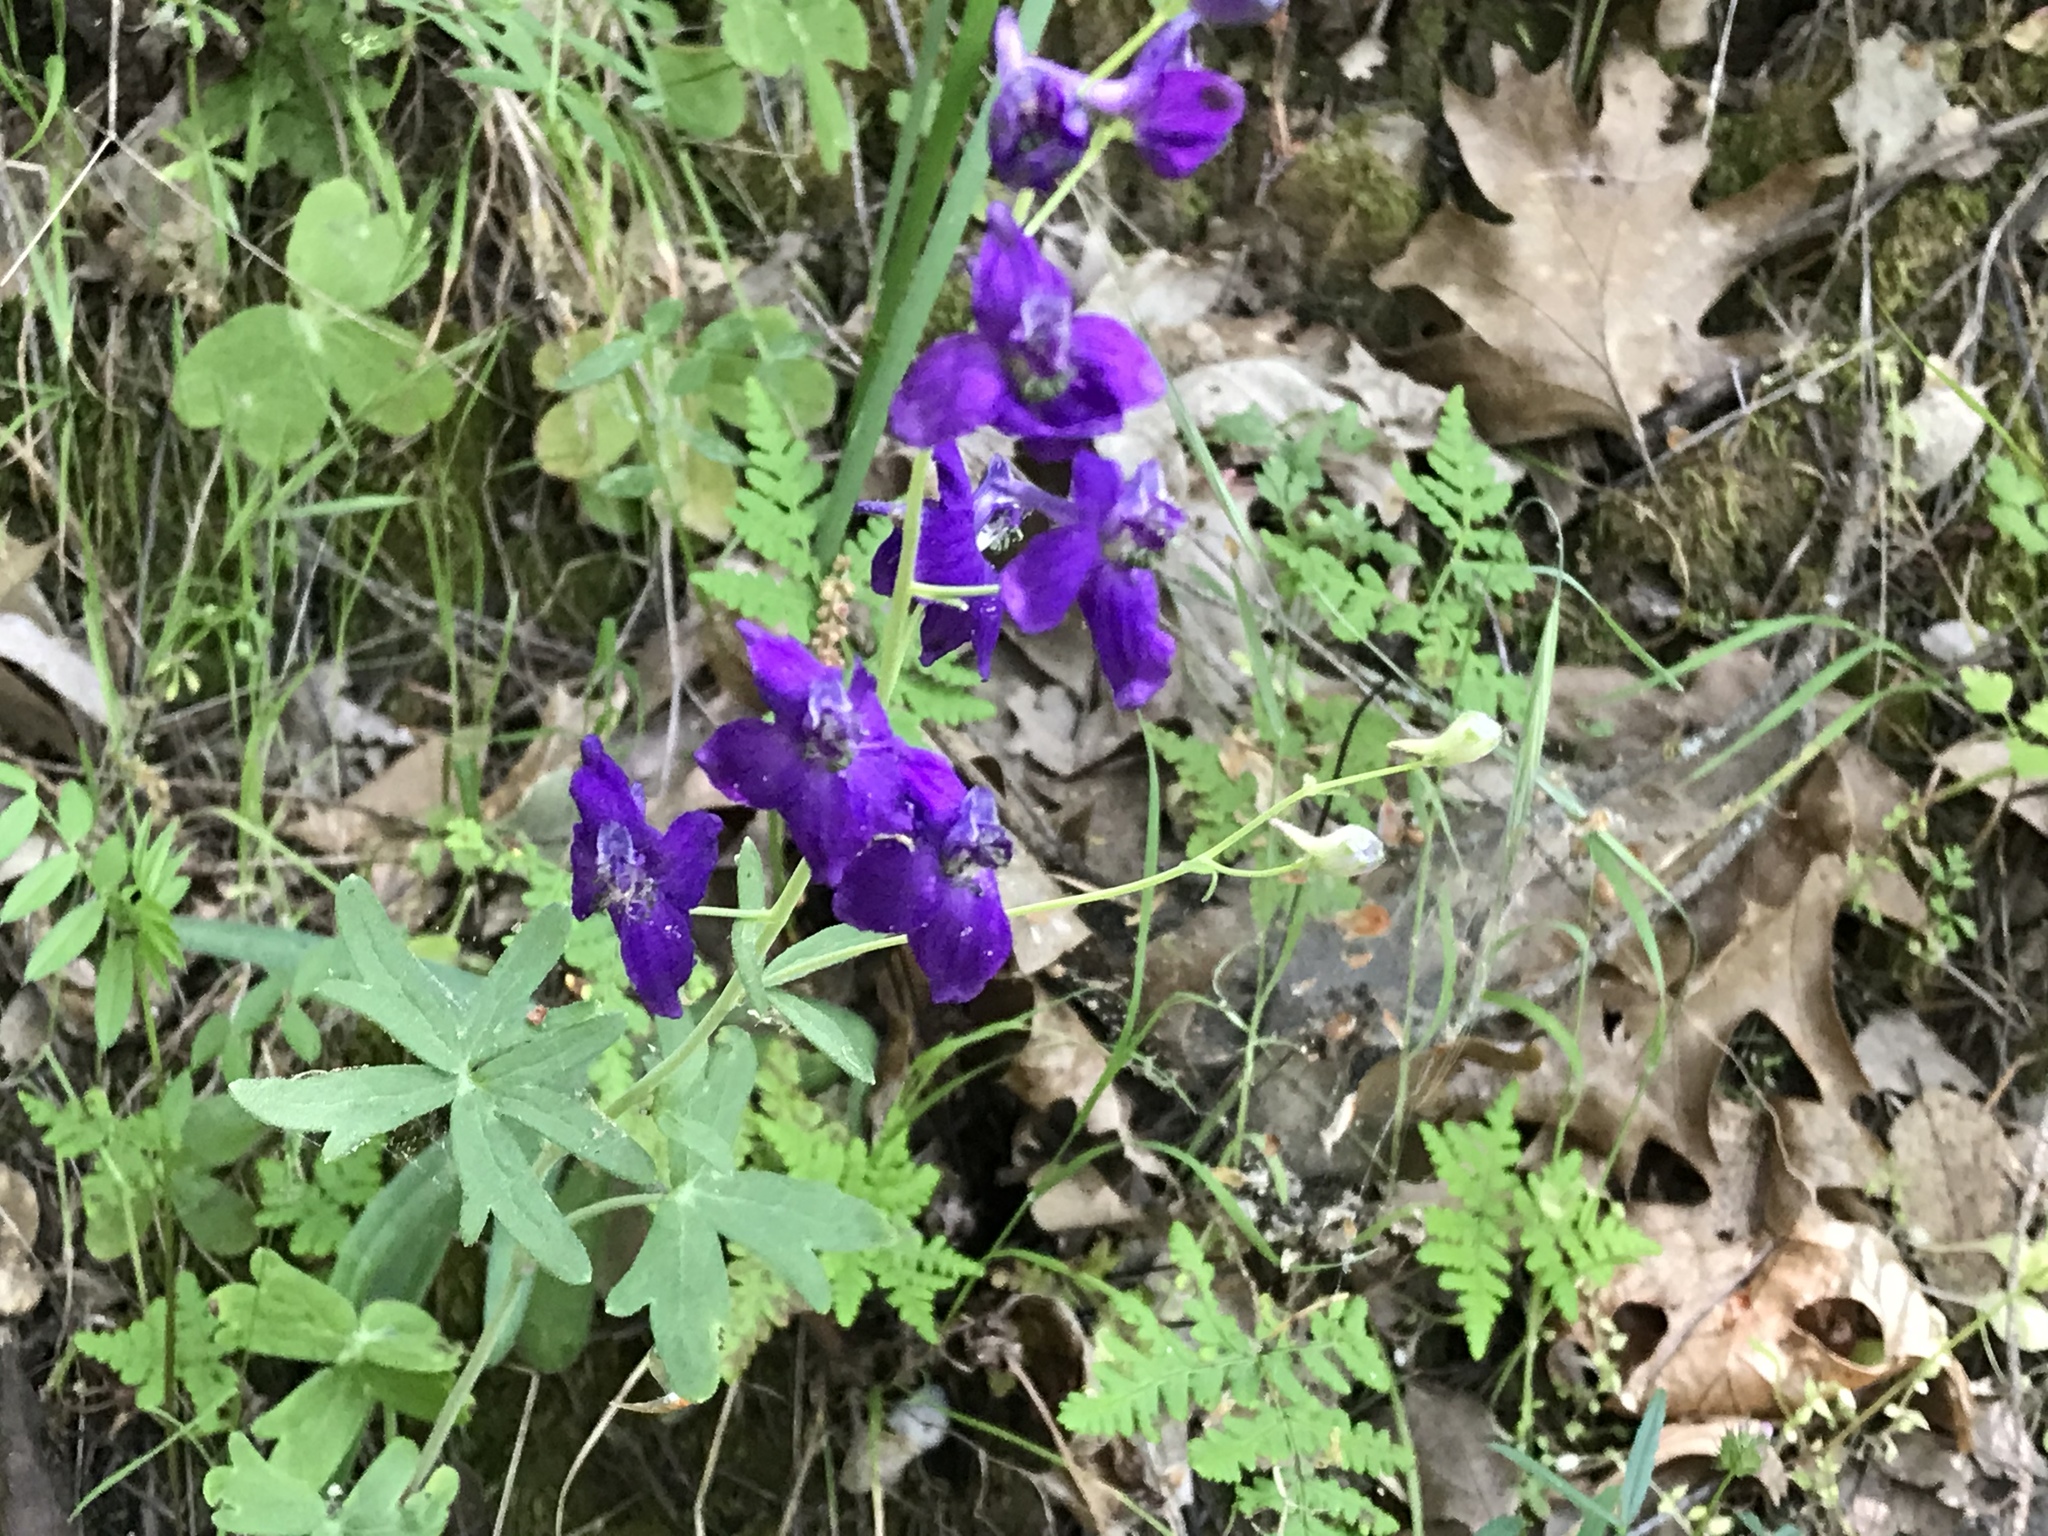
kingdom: Plantae
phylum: Tracheophyta
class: Magnoliopsida
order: Ranunculales
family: Ranunculaceae
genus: Delphinium
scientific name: Delphinium patens
